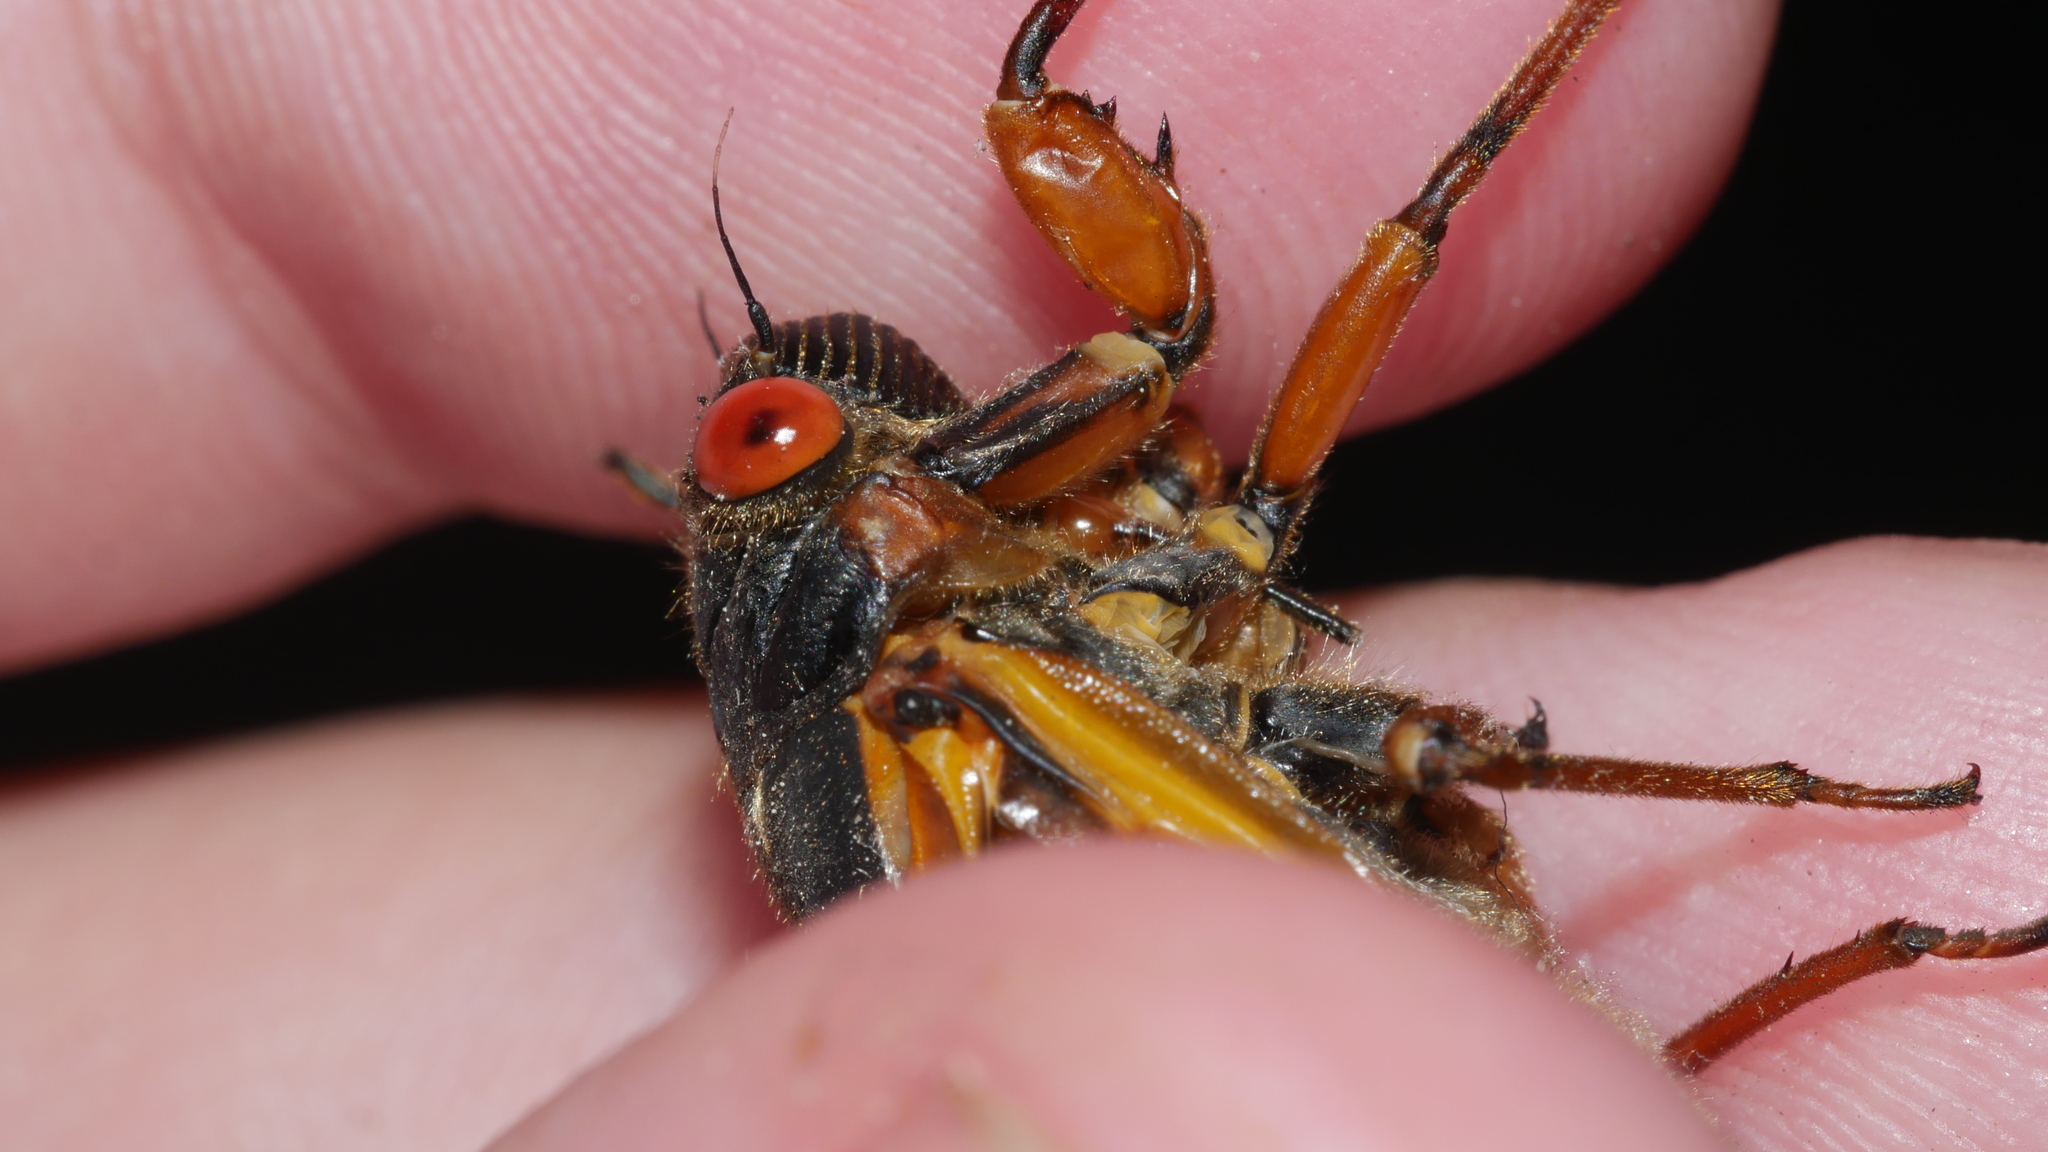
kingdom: Animalia
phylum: Arthropoda
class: Insecta
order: Hemiptera
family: Cicadidae
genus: Magicicada
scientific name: Magicicada septendecim
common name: Periodical cicada
